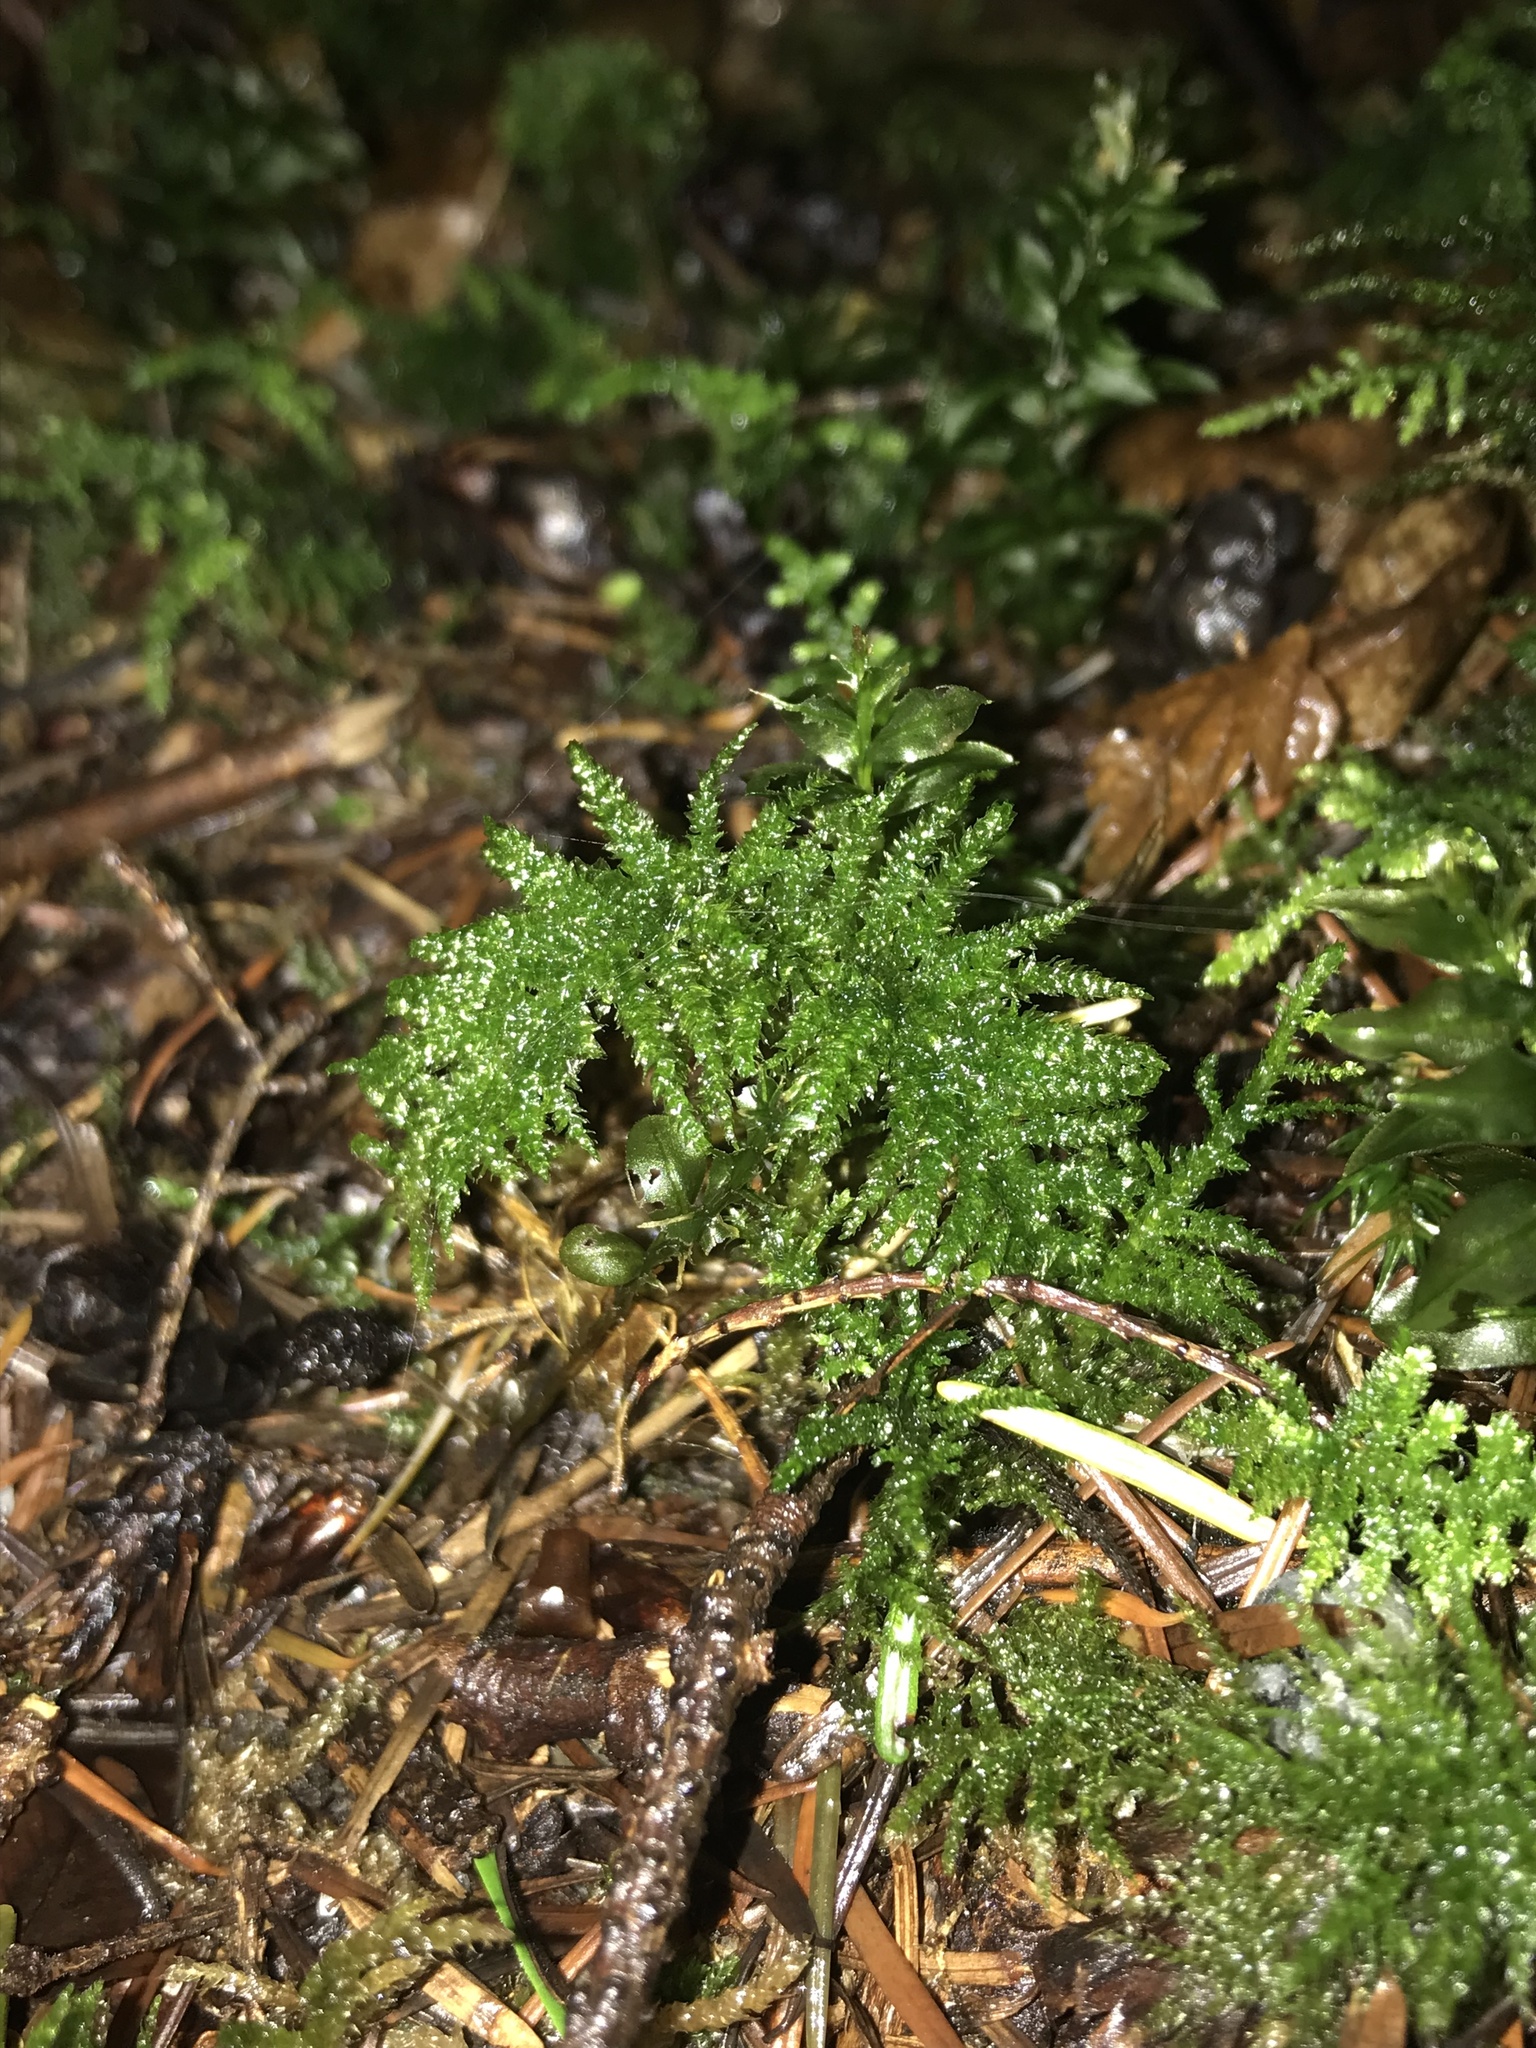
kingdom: Plantae
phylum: Bryophyta
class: Bryopsida
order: Hypnales
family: Brachytheciaceae
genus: Kindbergia
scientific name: Kindbergia oregana
